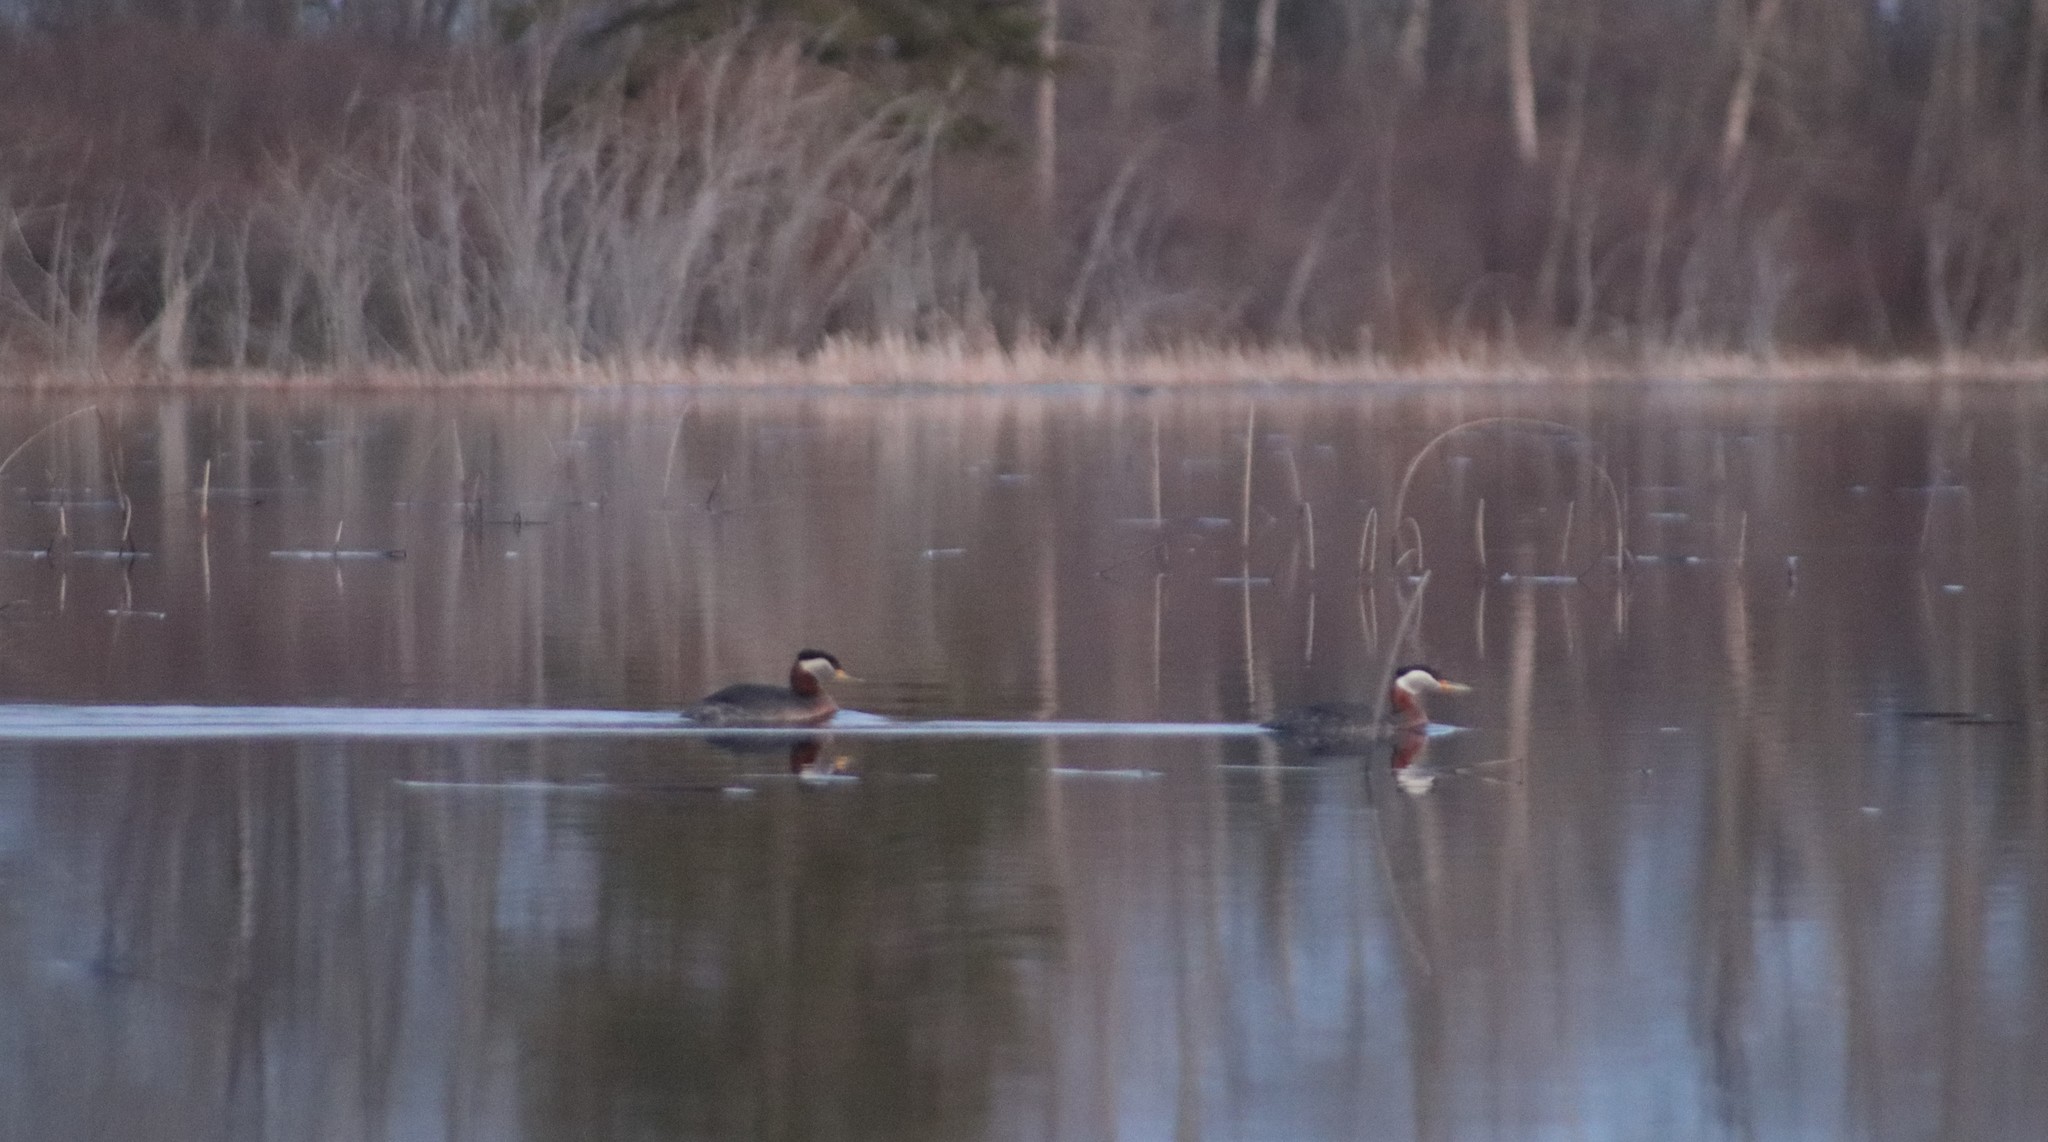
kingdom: Animalia
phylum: Chordata
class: Aves
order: Podicipediformes
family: Podicipedidae
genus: Podiceps
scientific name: Podiceps grisegena
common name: Red-necked grebe
